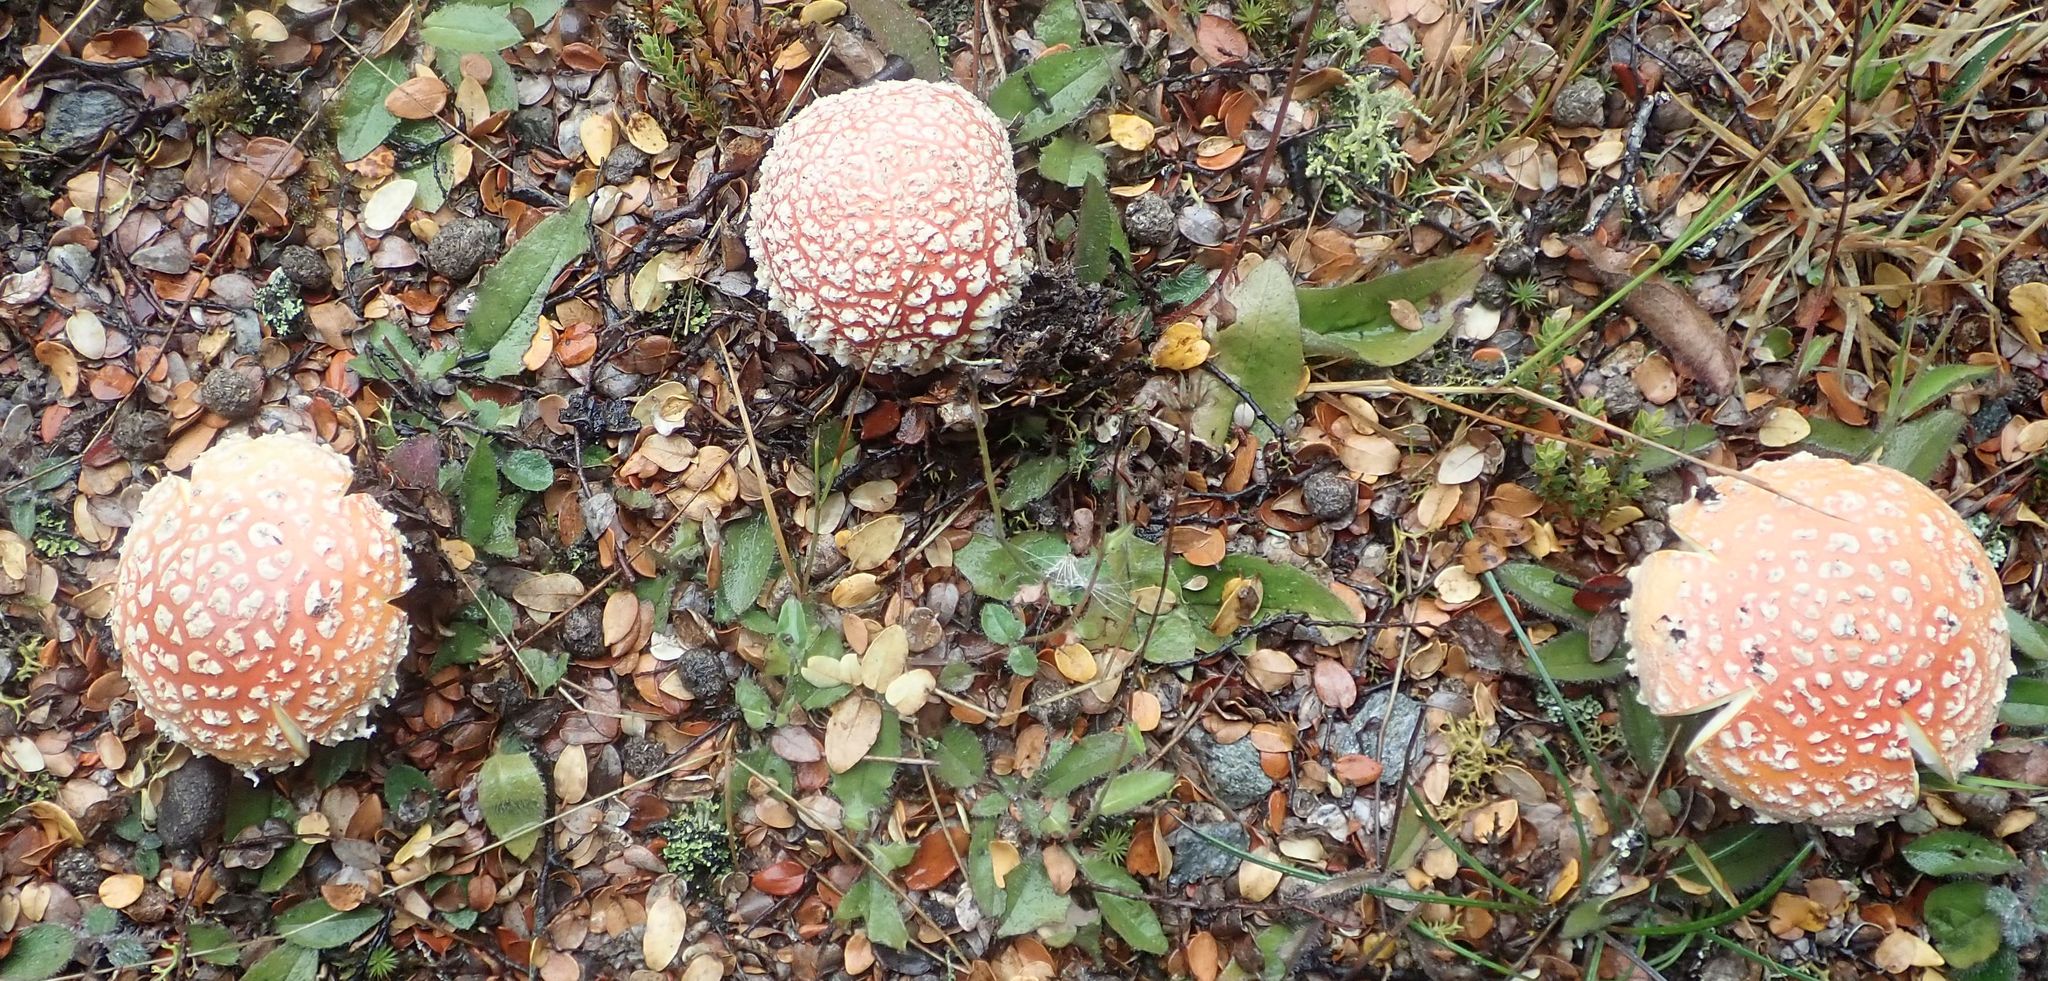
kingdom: Fungi
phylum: Basidiomycota
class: Agaricomycetes
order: Agaricales
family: Amanitaceae
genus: Amanita
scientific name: Amanita muscaria
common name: Fly agaric
